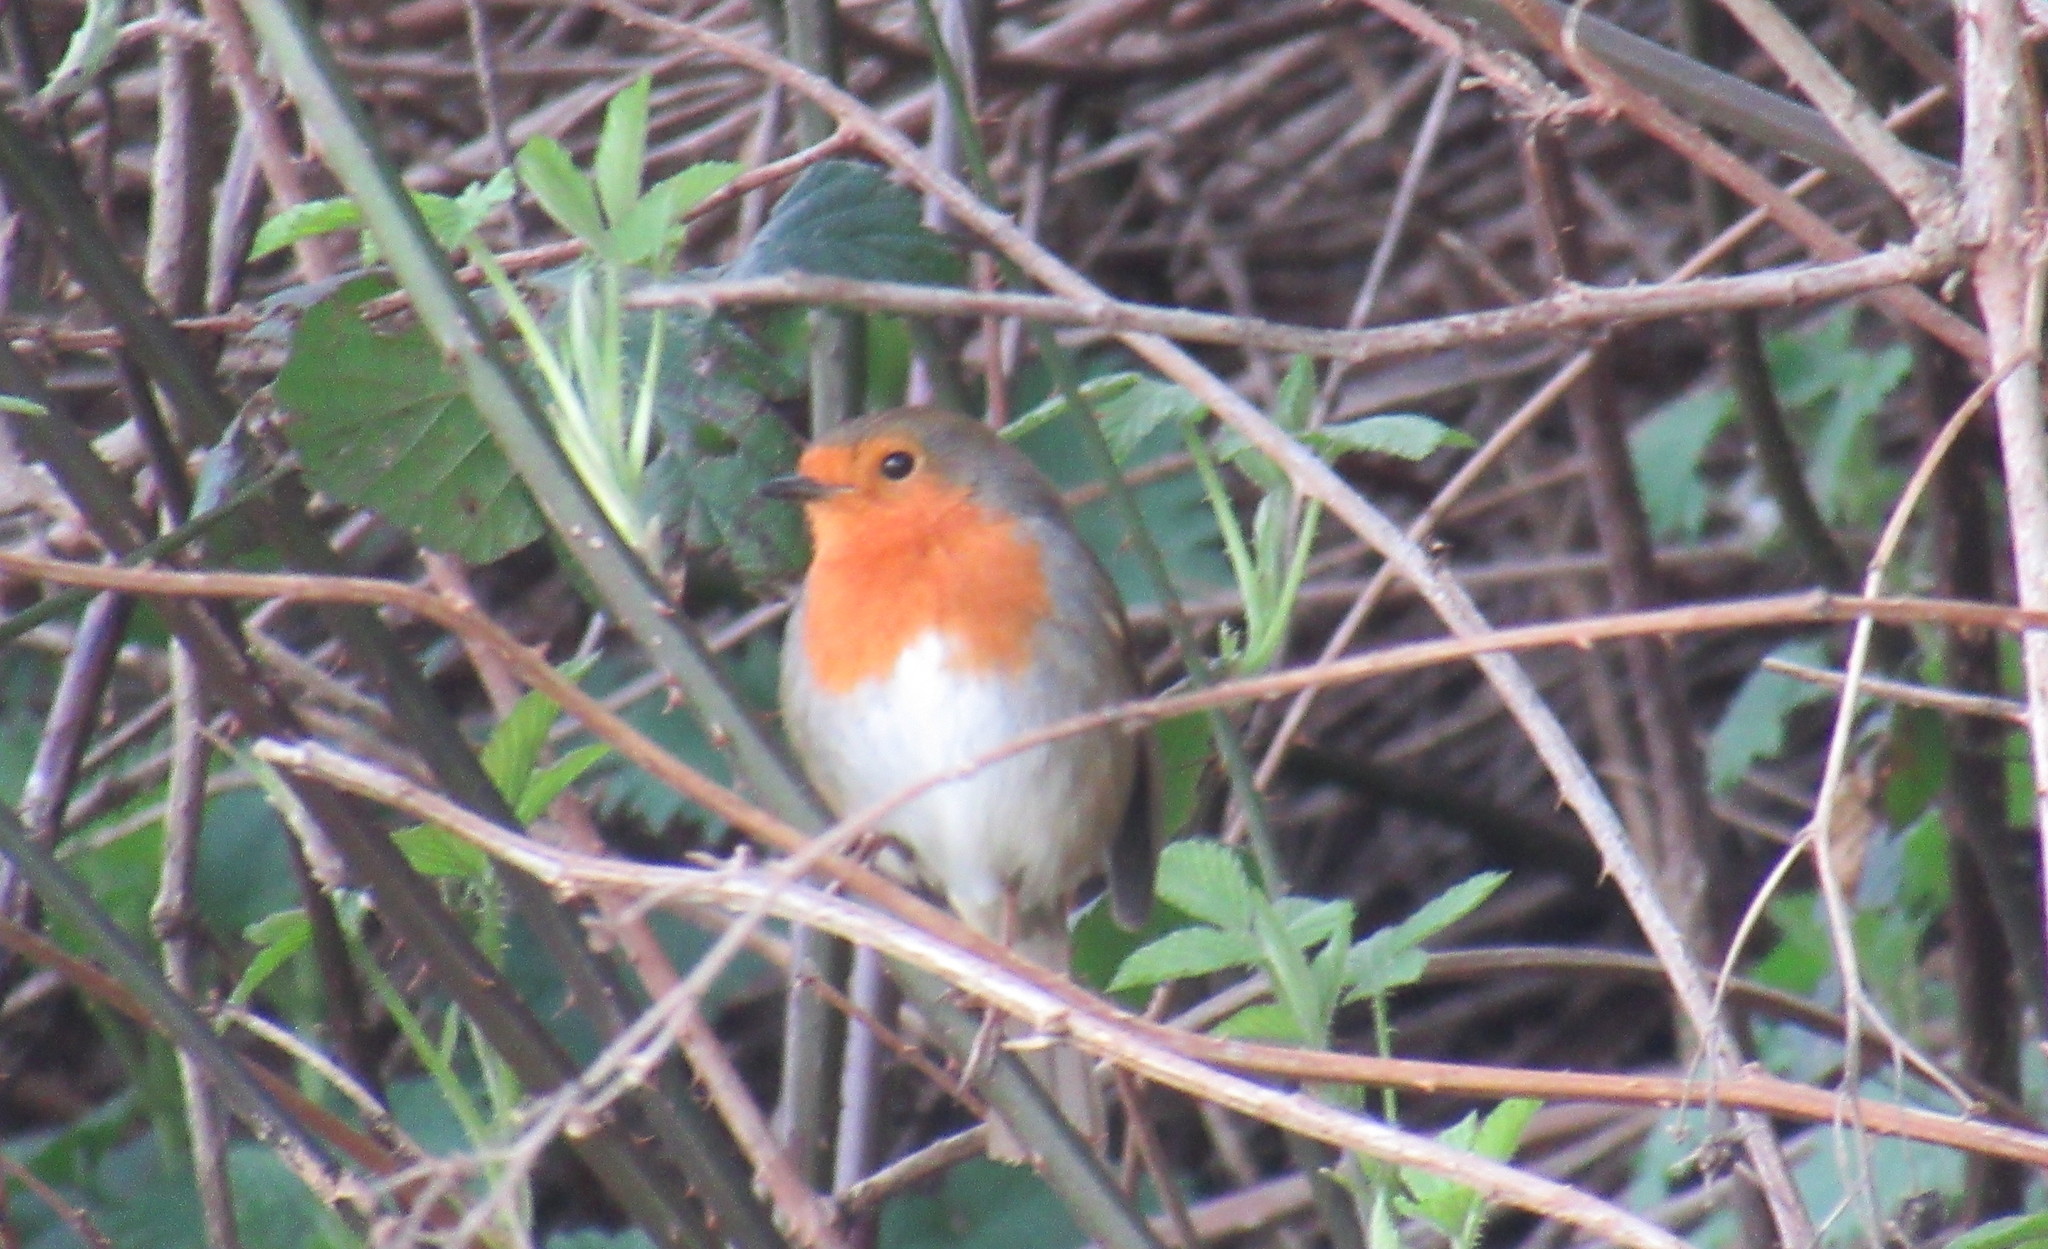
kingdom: Animalia
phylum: Chordata
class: Aves
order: Passeriformes
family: Muscicapidae
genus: Erithacus
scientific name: Erithacus rubecula
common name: European robin
